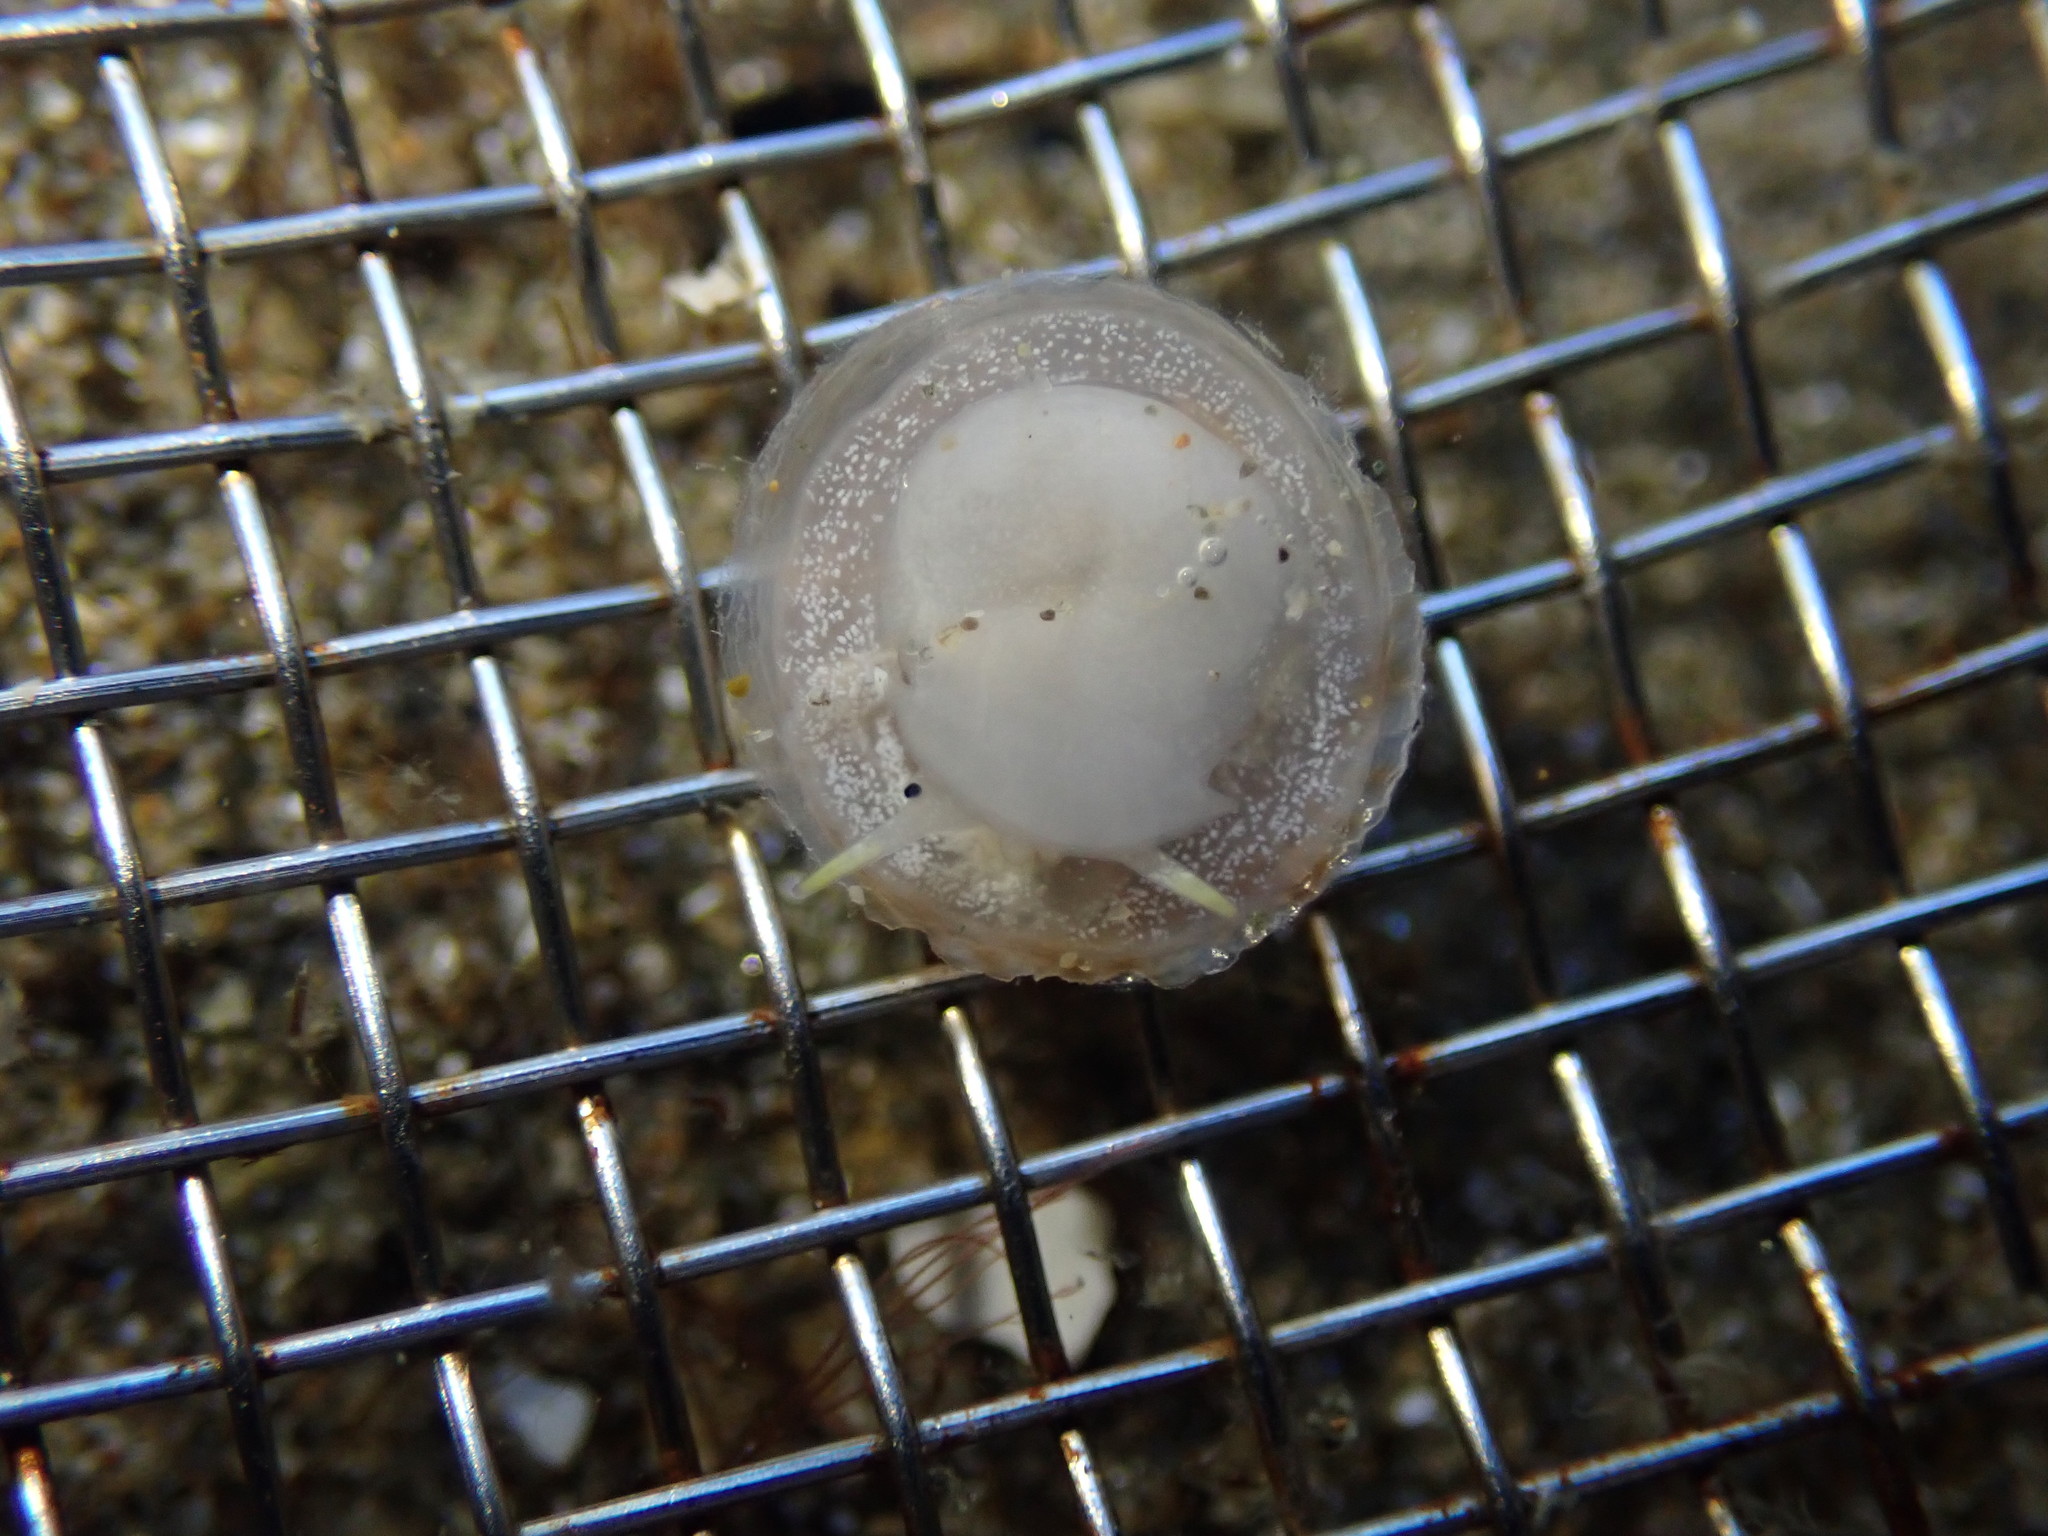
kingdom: Animalia
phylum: Mollusca
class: Gastropoda
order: Littorinimorpha
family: Calyptraeidae
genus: Sigapatella
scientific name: Sigapatella tenuis
